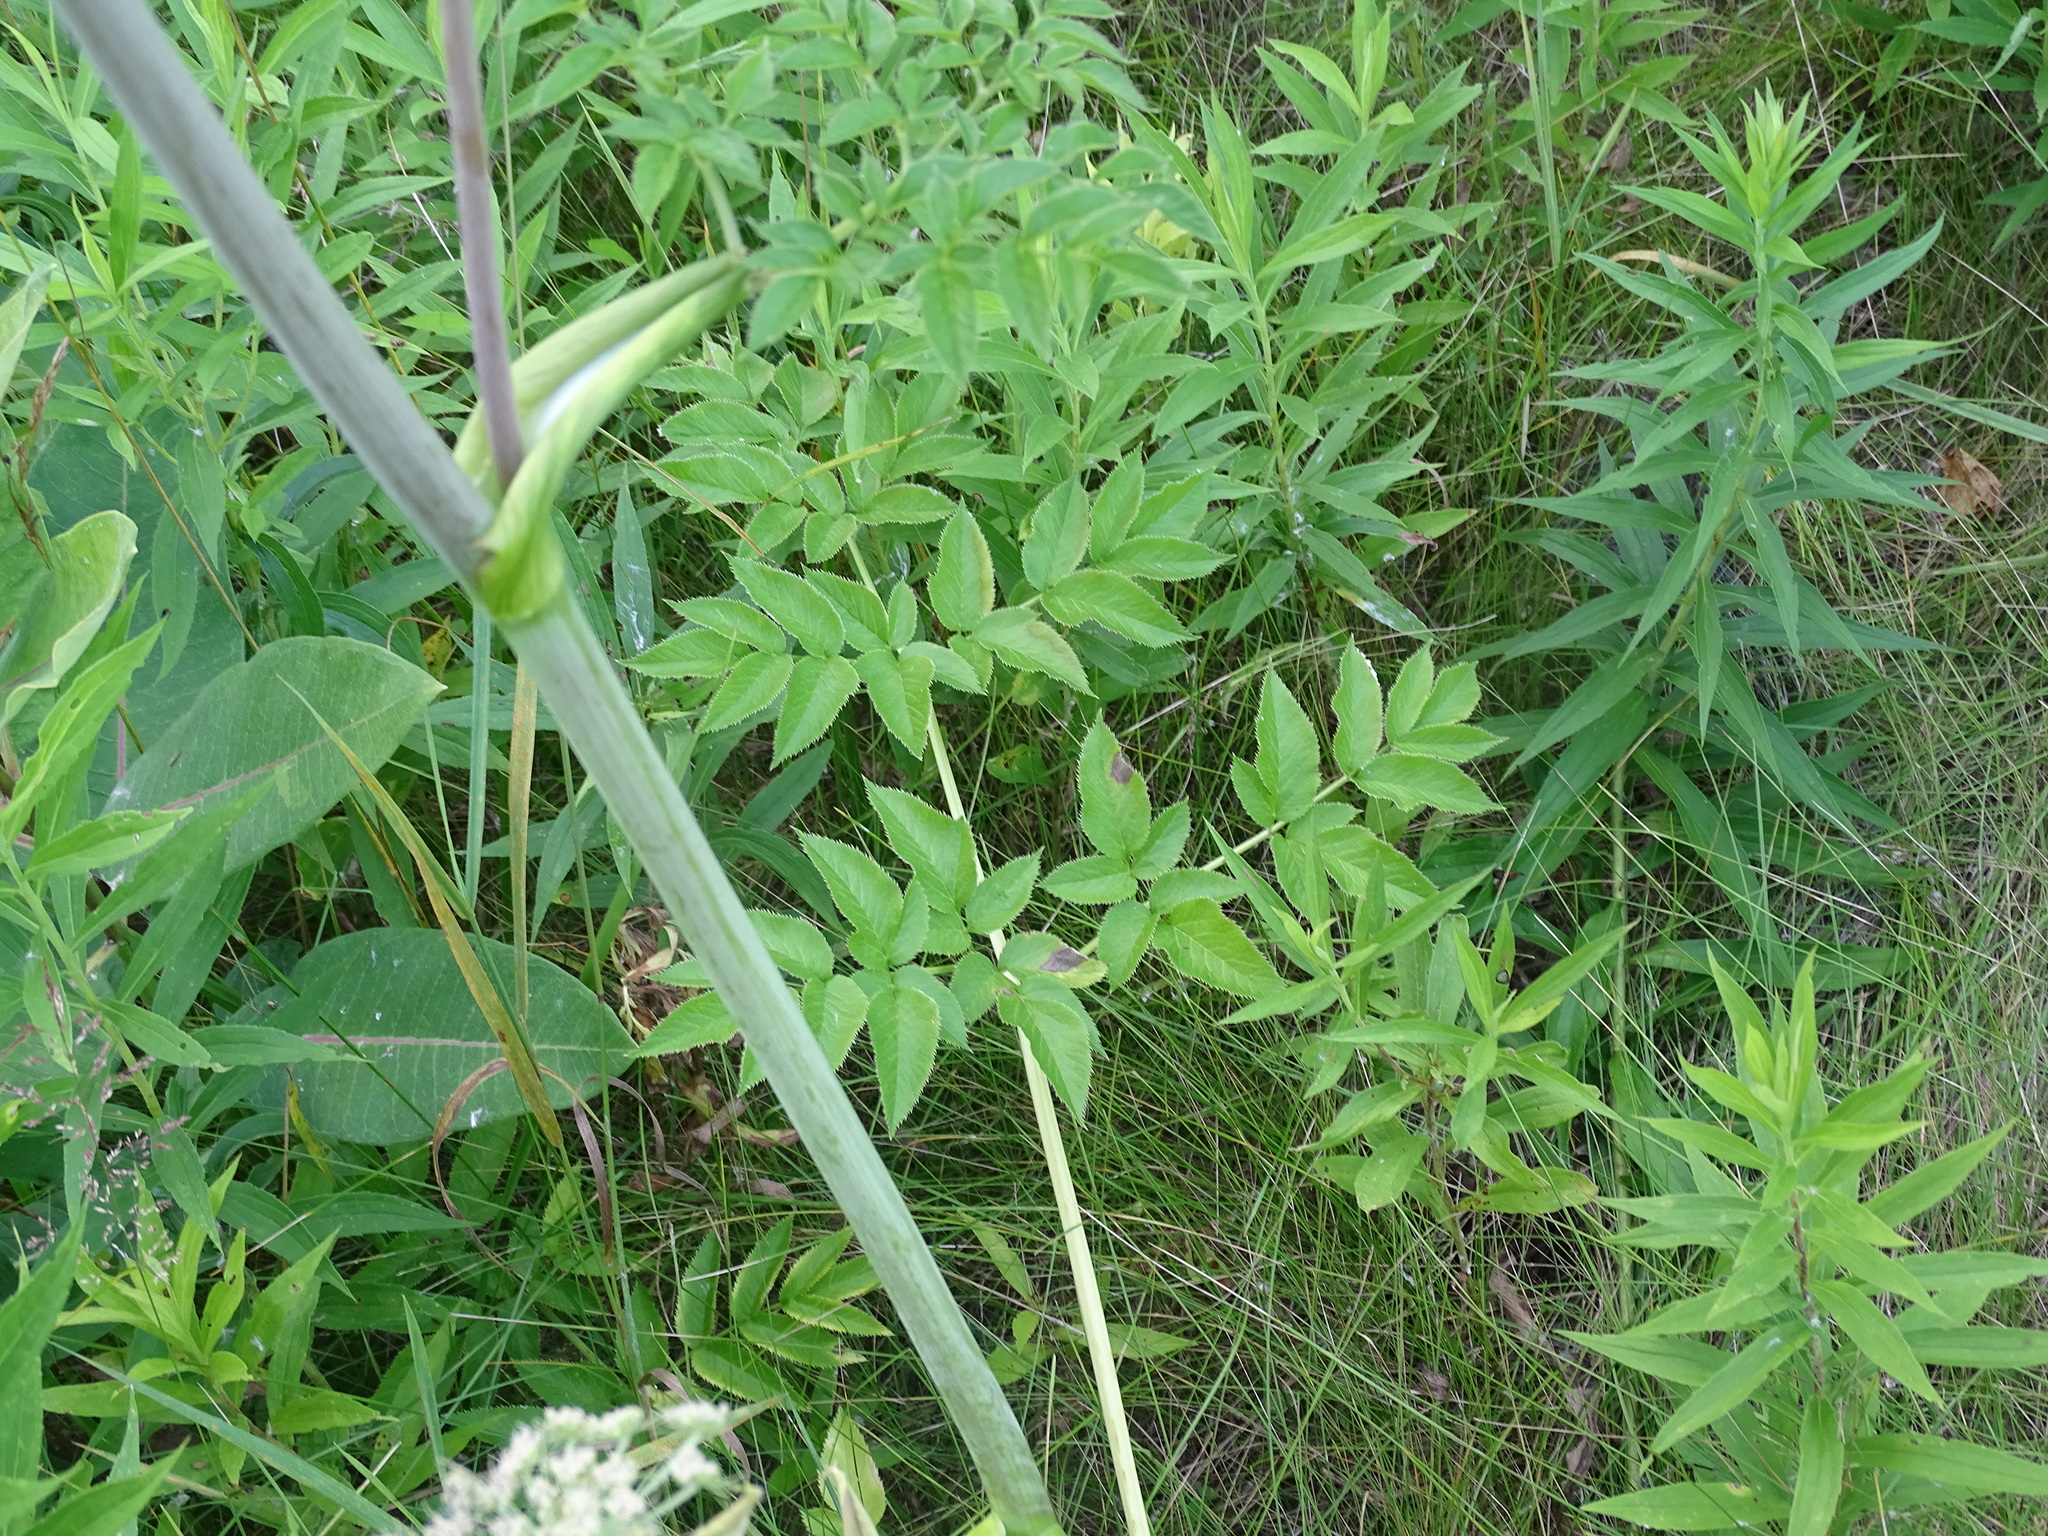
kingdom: Plantae
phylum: Tracheophyta
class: Magnoliopsida
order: Apiales
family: Apiaceae
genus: Angelica
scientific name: Angelica sylvestris
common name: Wild angelica
